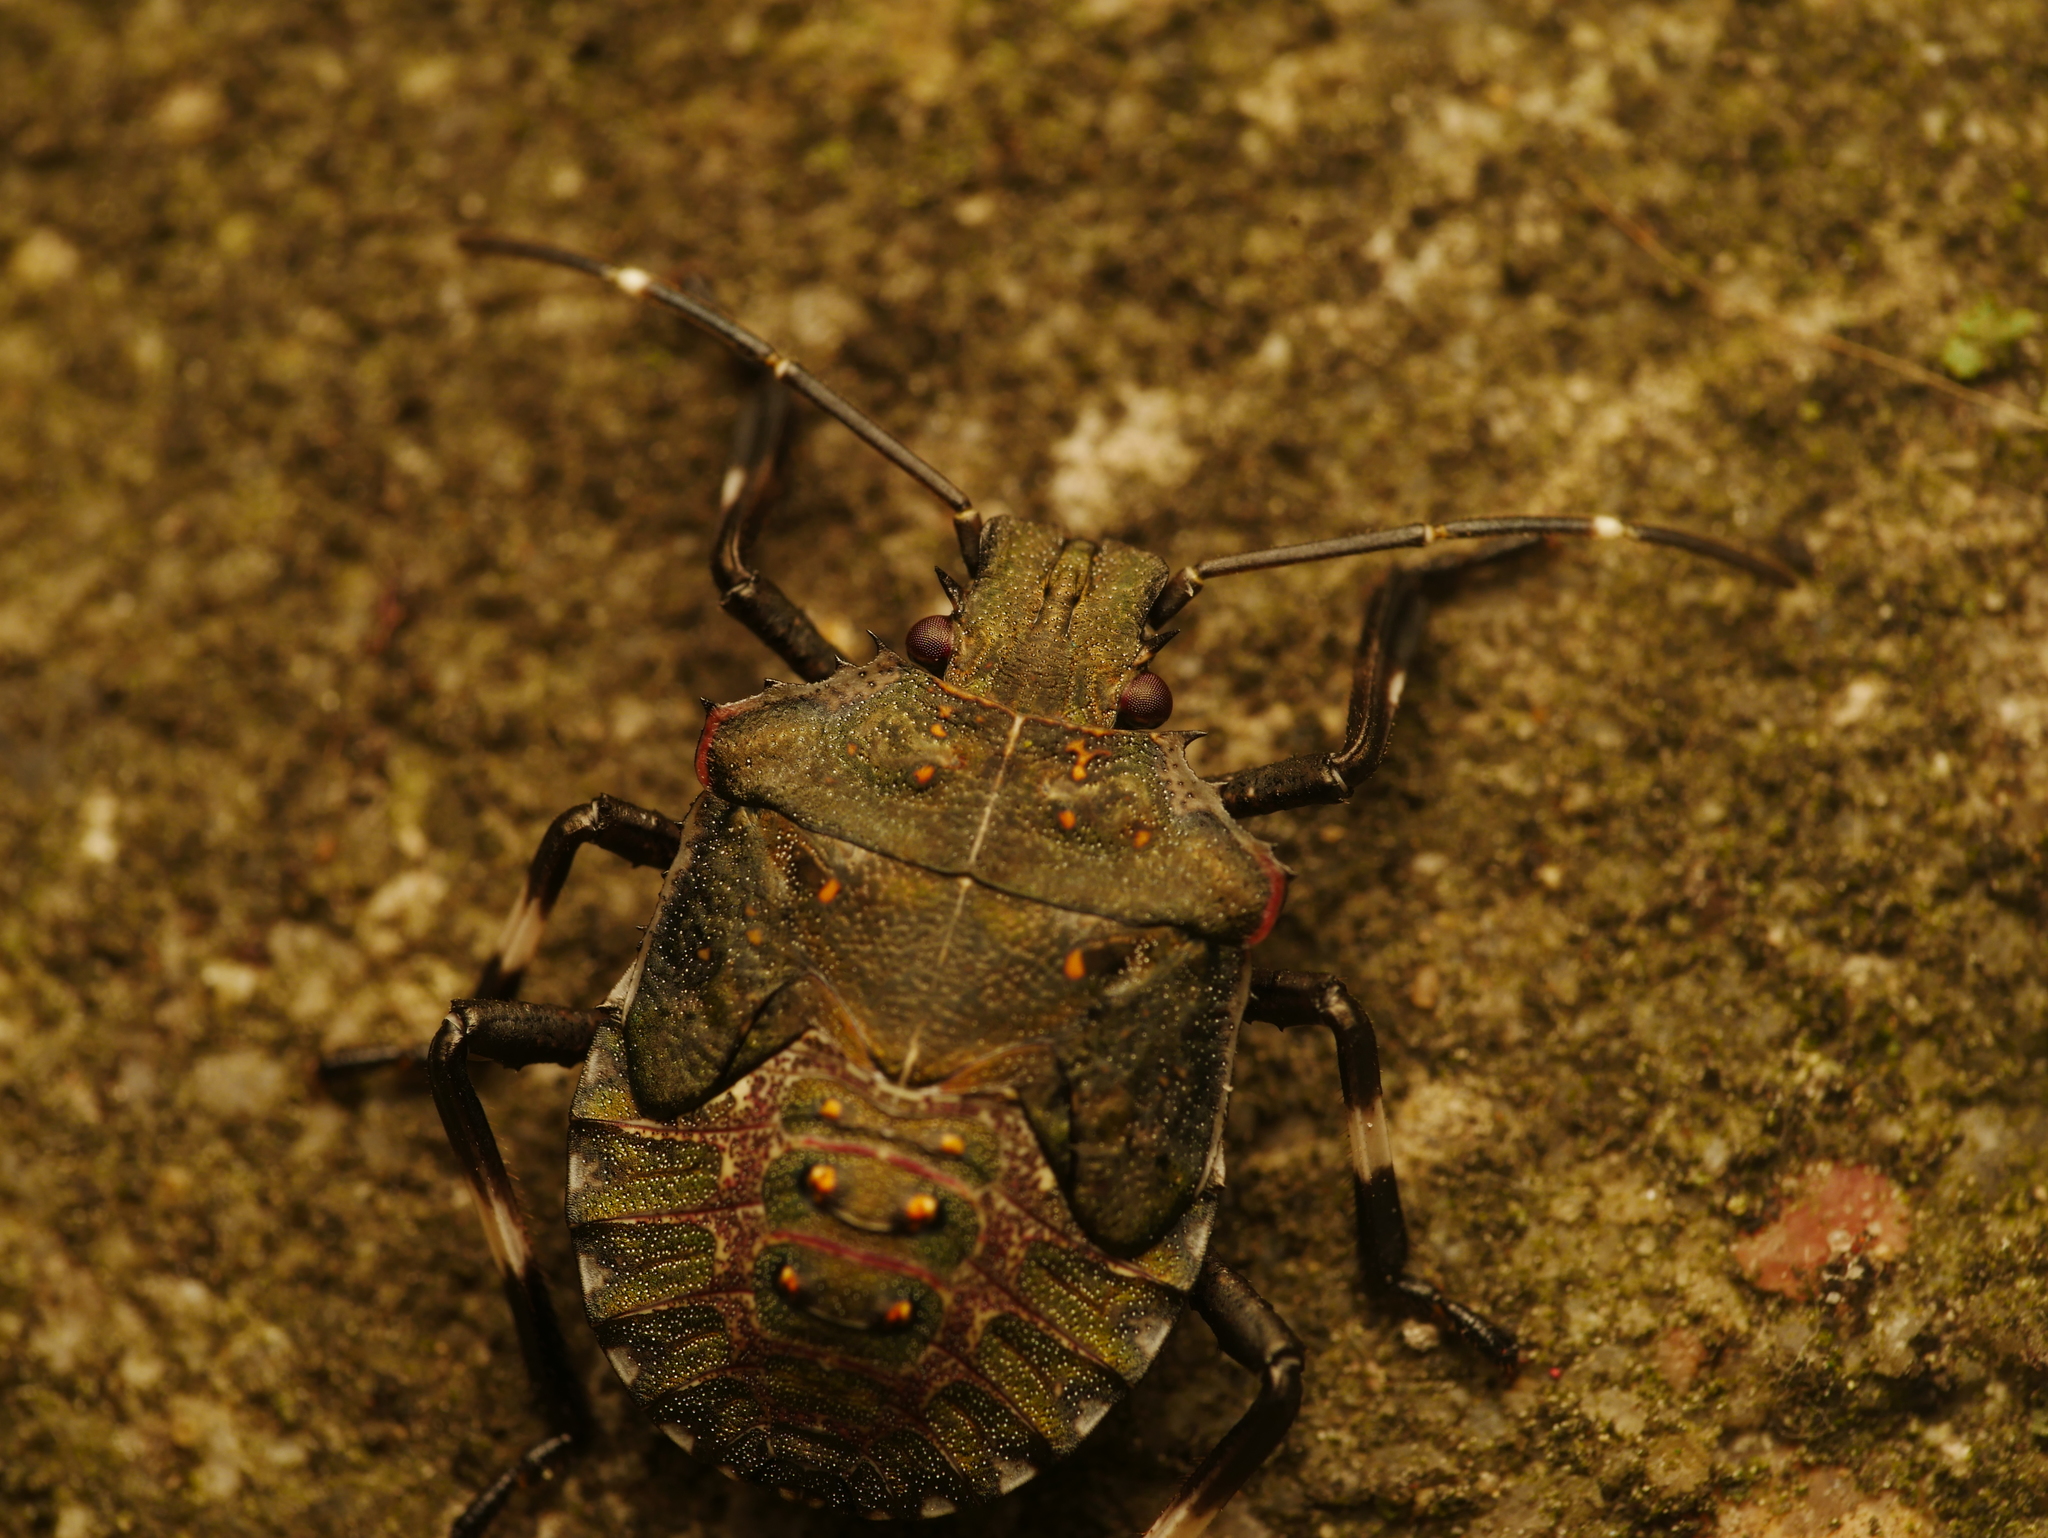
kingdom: Animalia
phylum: Arthropoda
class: Insecta
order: Hemiptera
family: Pentatomidae
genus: Halyomorpha
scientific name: Halyomorpha halys
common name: Brown marmorated stink bug
